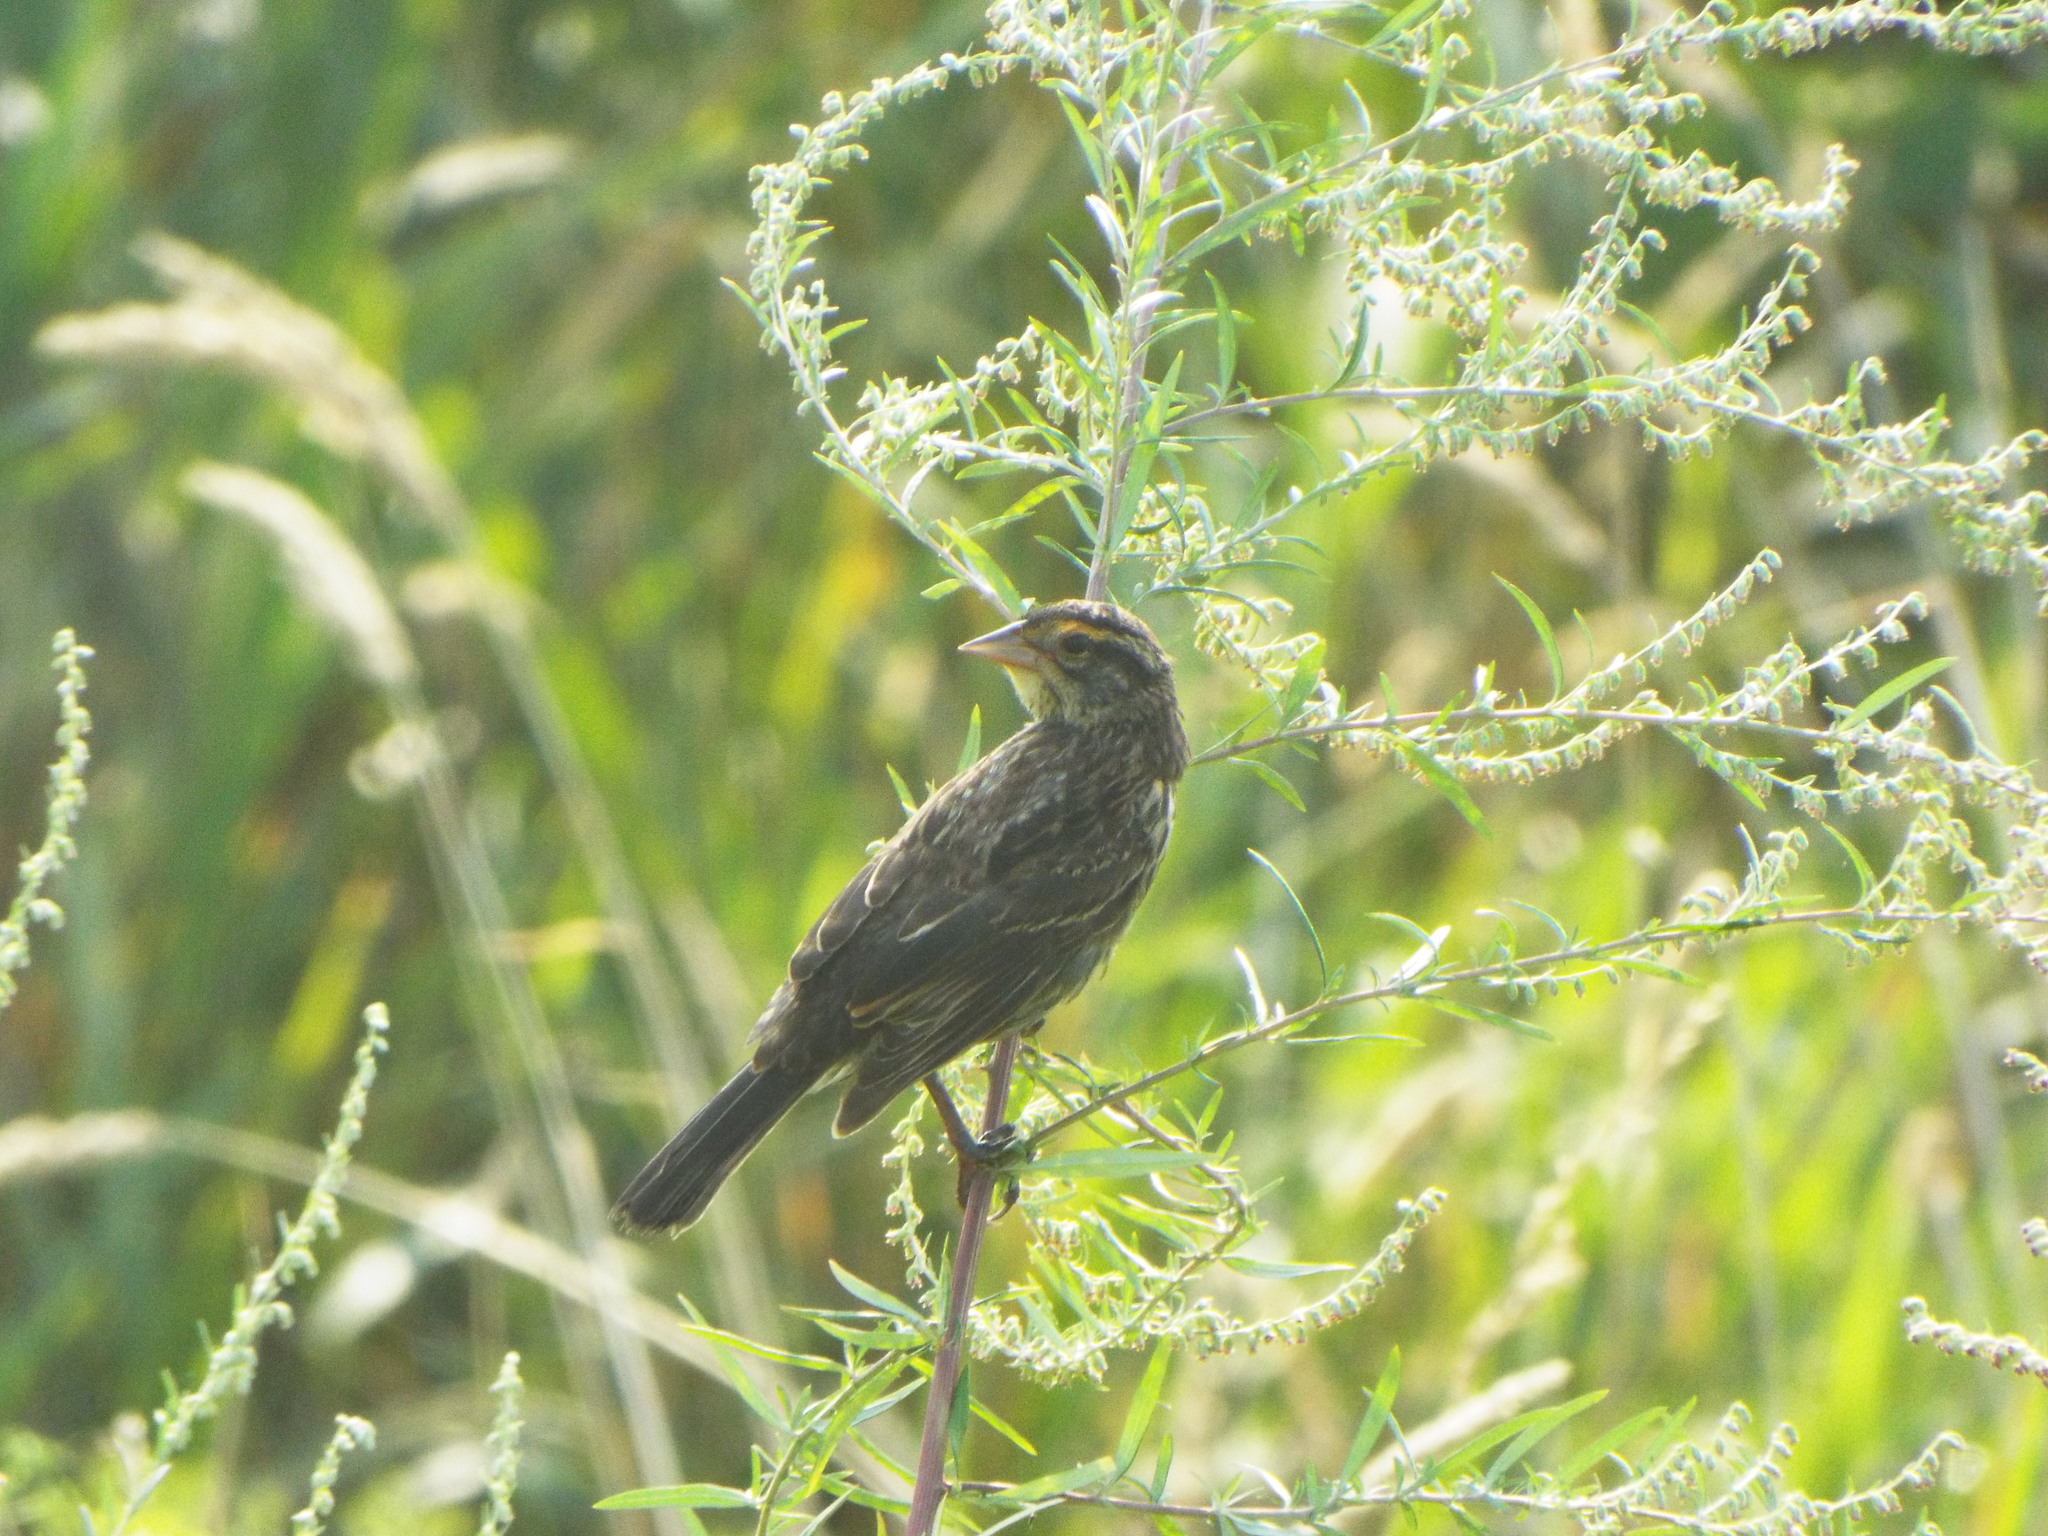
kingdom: Animalia
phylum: Chordata
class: Aves
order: Passeriformes
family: Icteridae
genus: Agelaius
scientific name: Agelaius phoeniceus
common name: Red-winged blackbird
